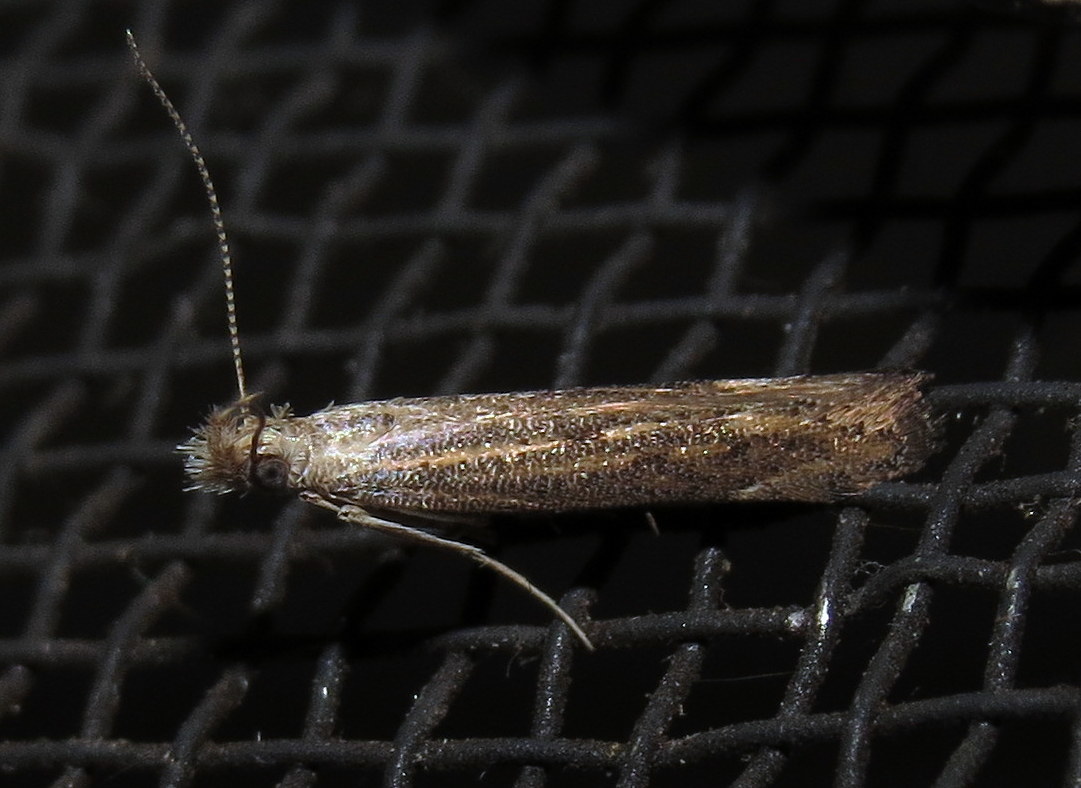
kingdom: Animalia
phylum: Arthropoda
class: Insecta
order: Lepidoptera
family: Gelechiidae
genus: Isophrictis
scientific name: Isophrictis rudbeckiella
